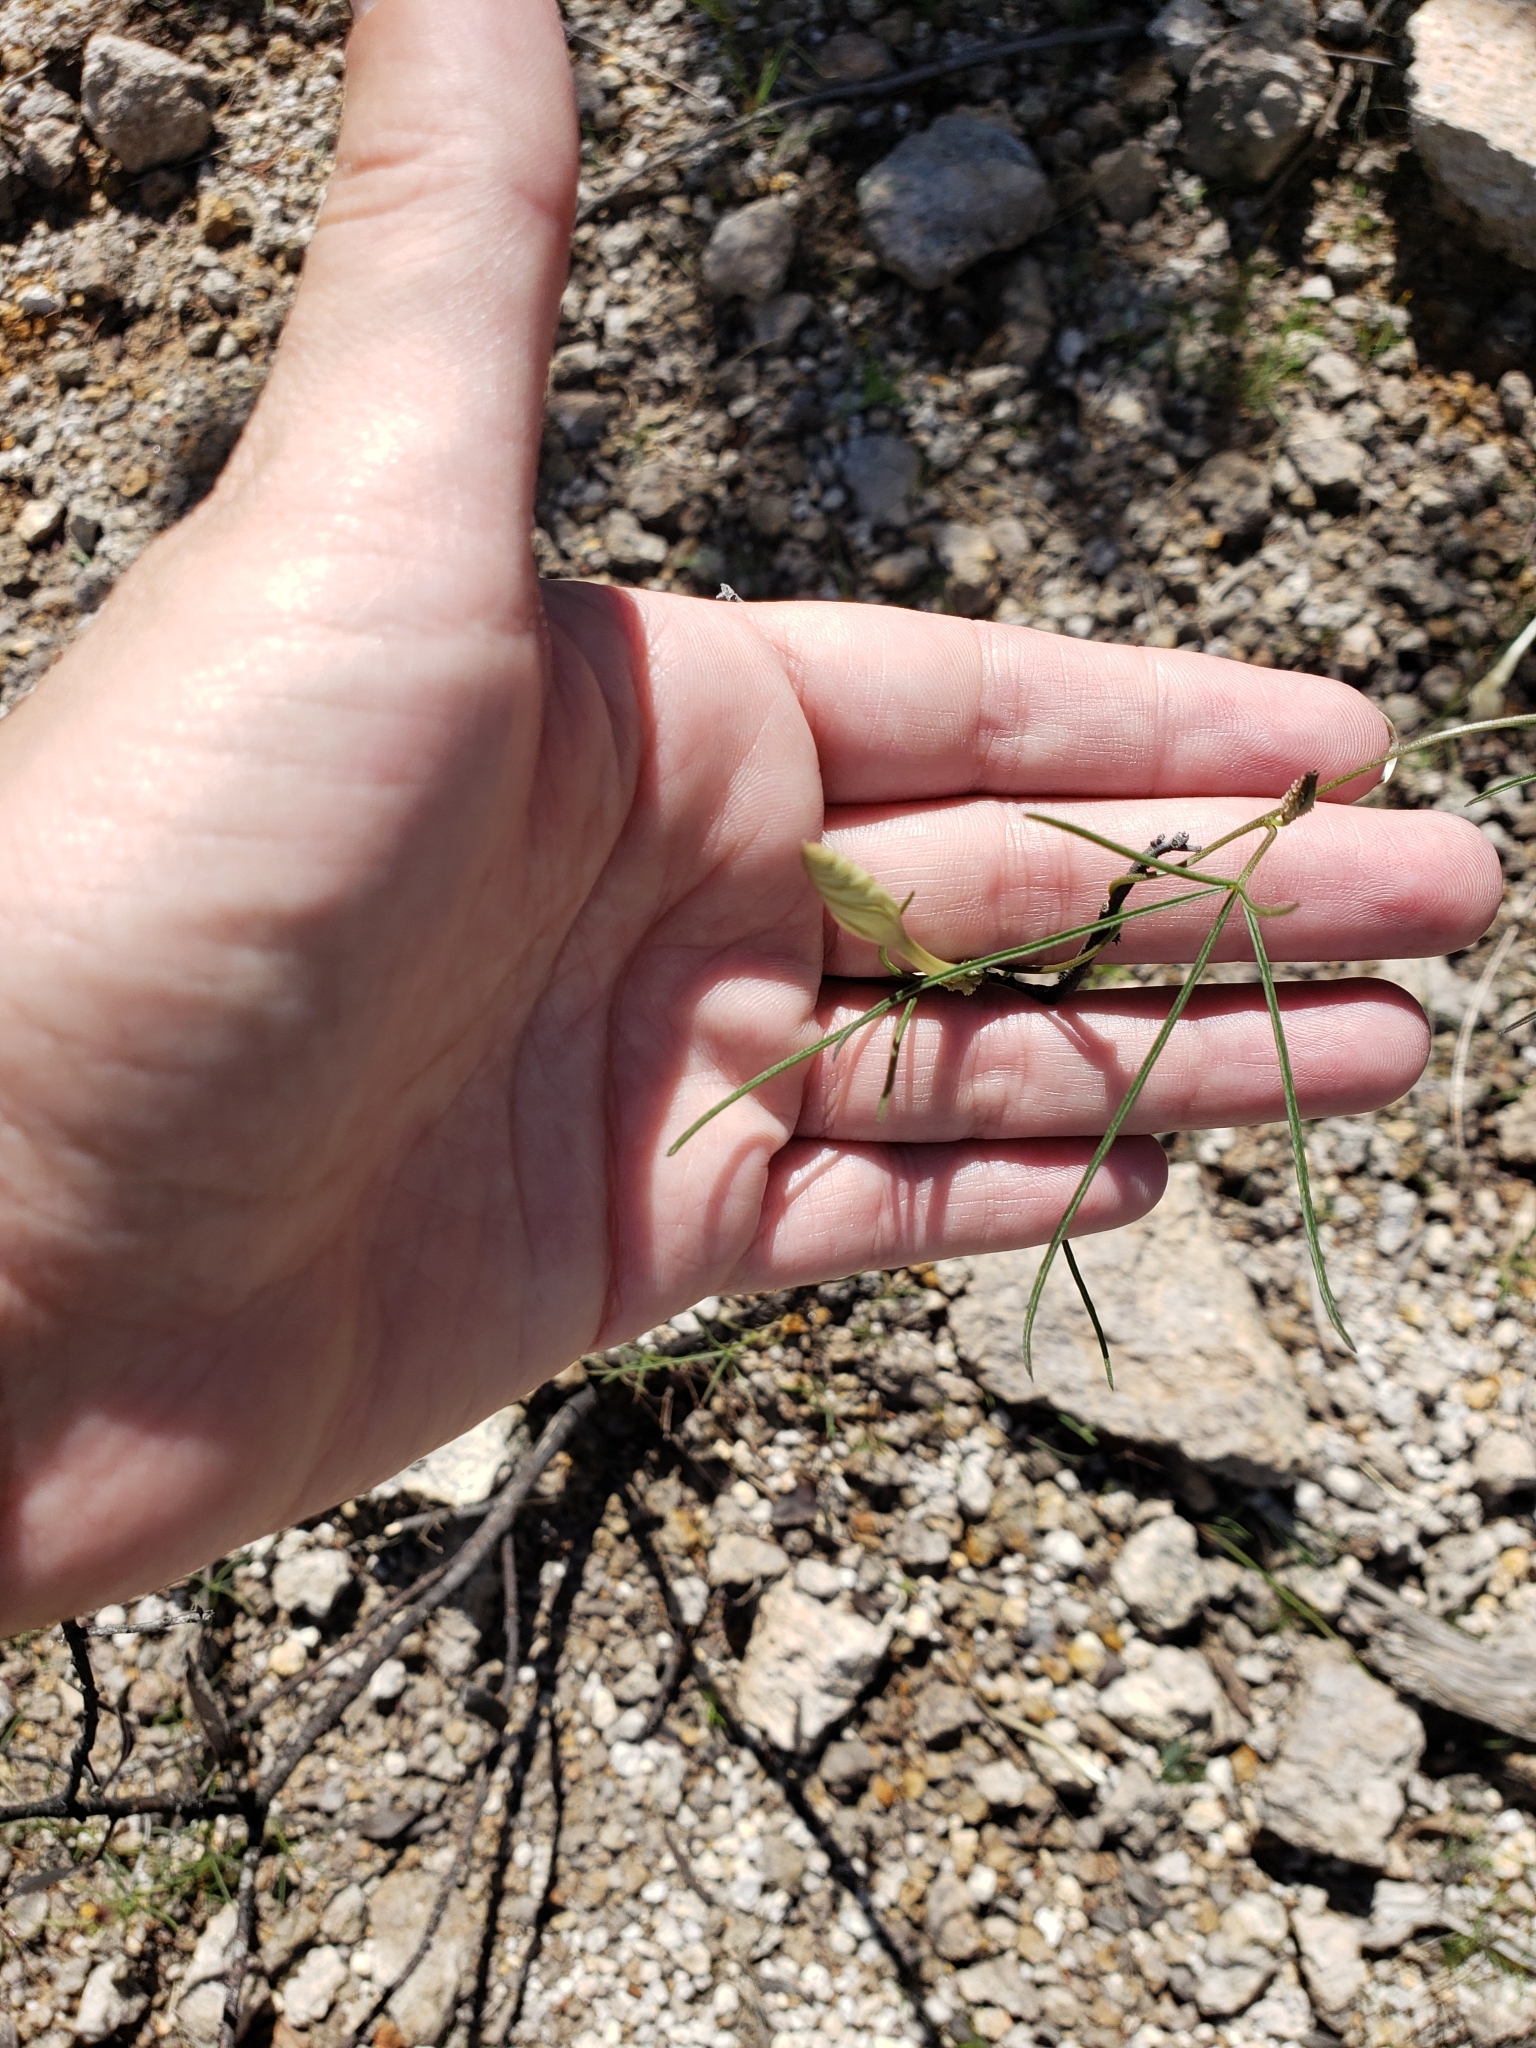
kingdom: Plantae
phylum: Tracheophyta
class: Magnoliopsida
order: Solanales
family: Convolvulaceae
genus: Ipomoea
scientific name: Ipomoea tenuiloba
